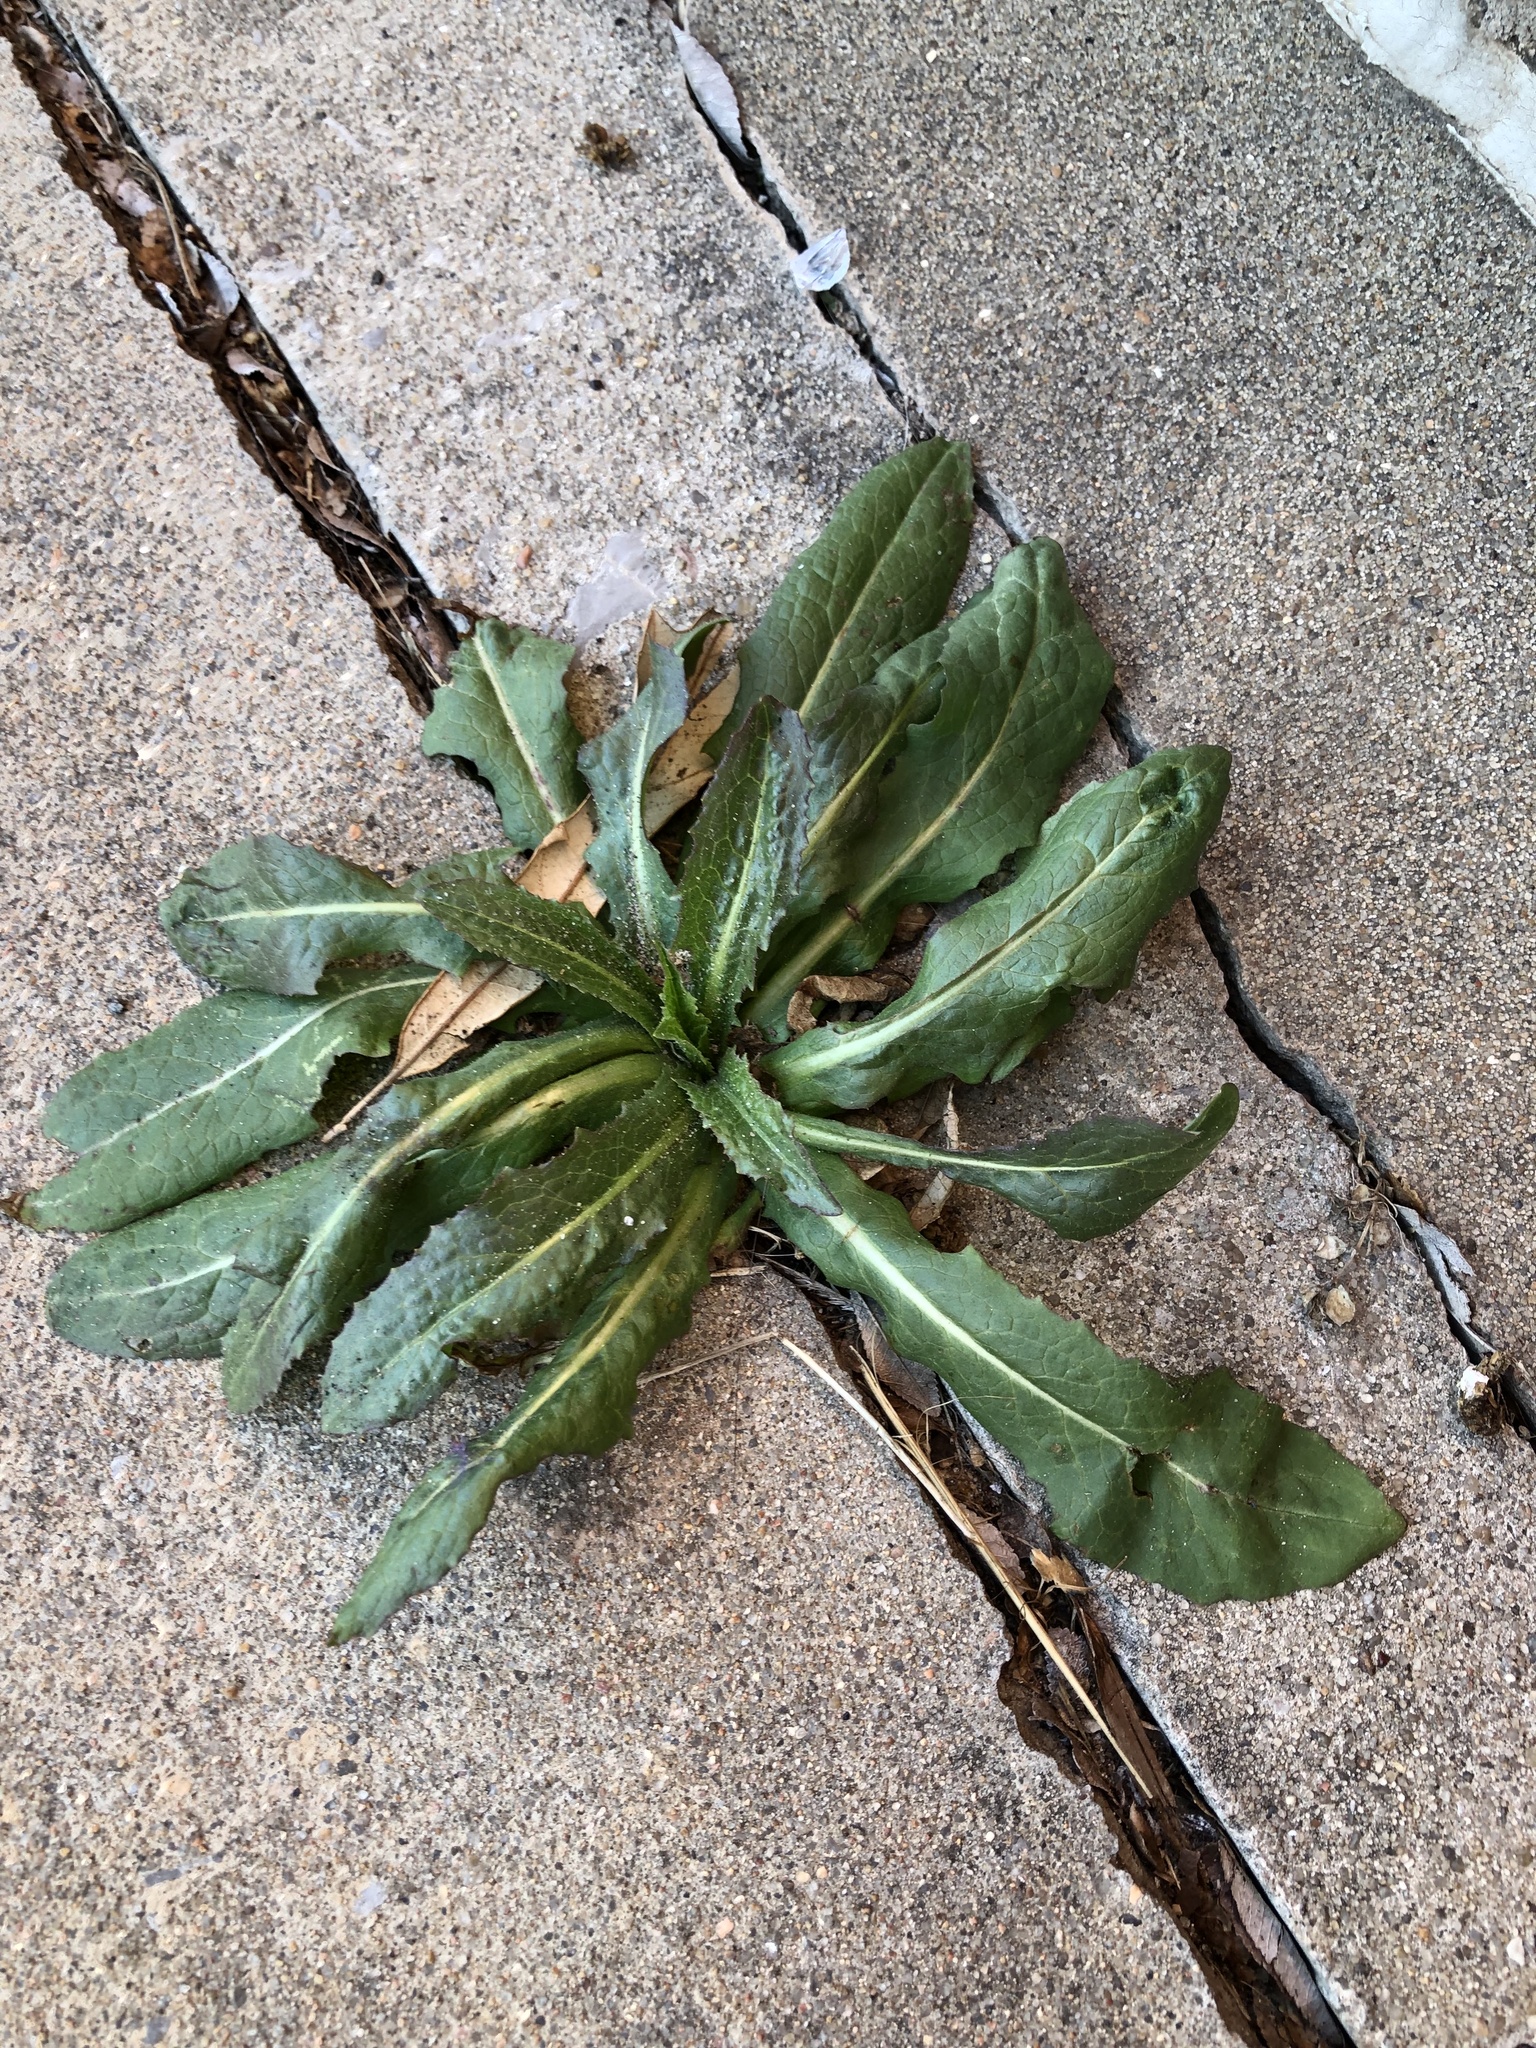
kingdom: Plantae
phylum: Tracheophyta
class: Magnoliopsida
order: Asterales
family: Asteraceae
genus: Lactuca
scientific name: Lactuca serriola
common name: Prickly lettuce
